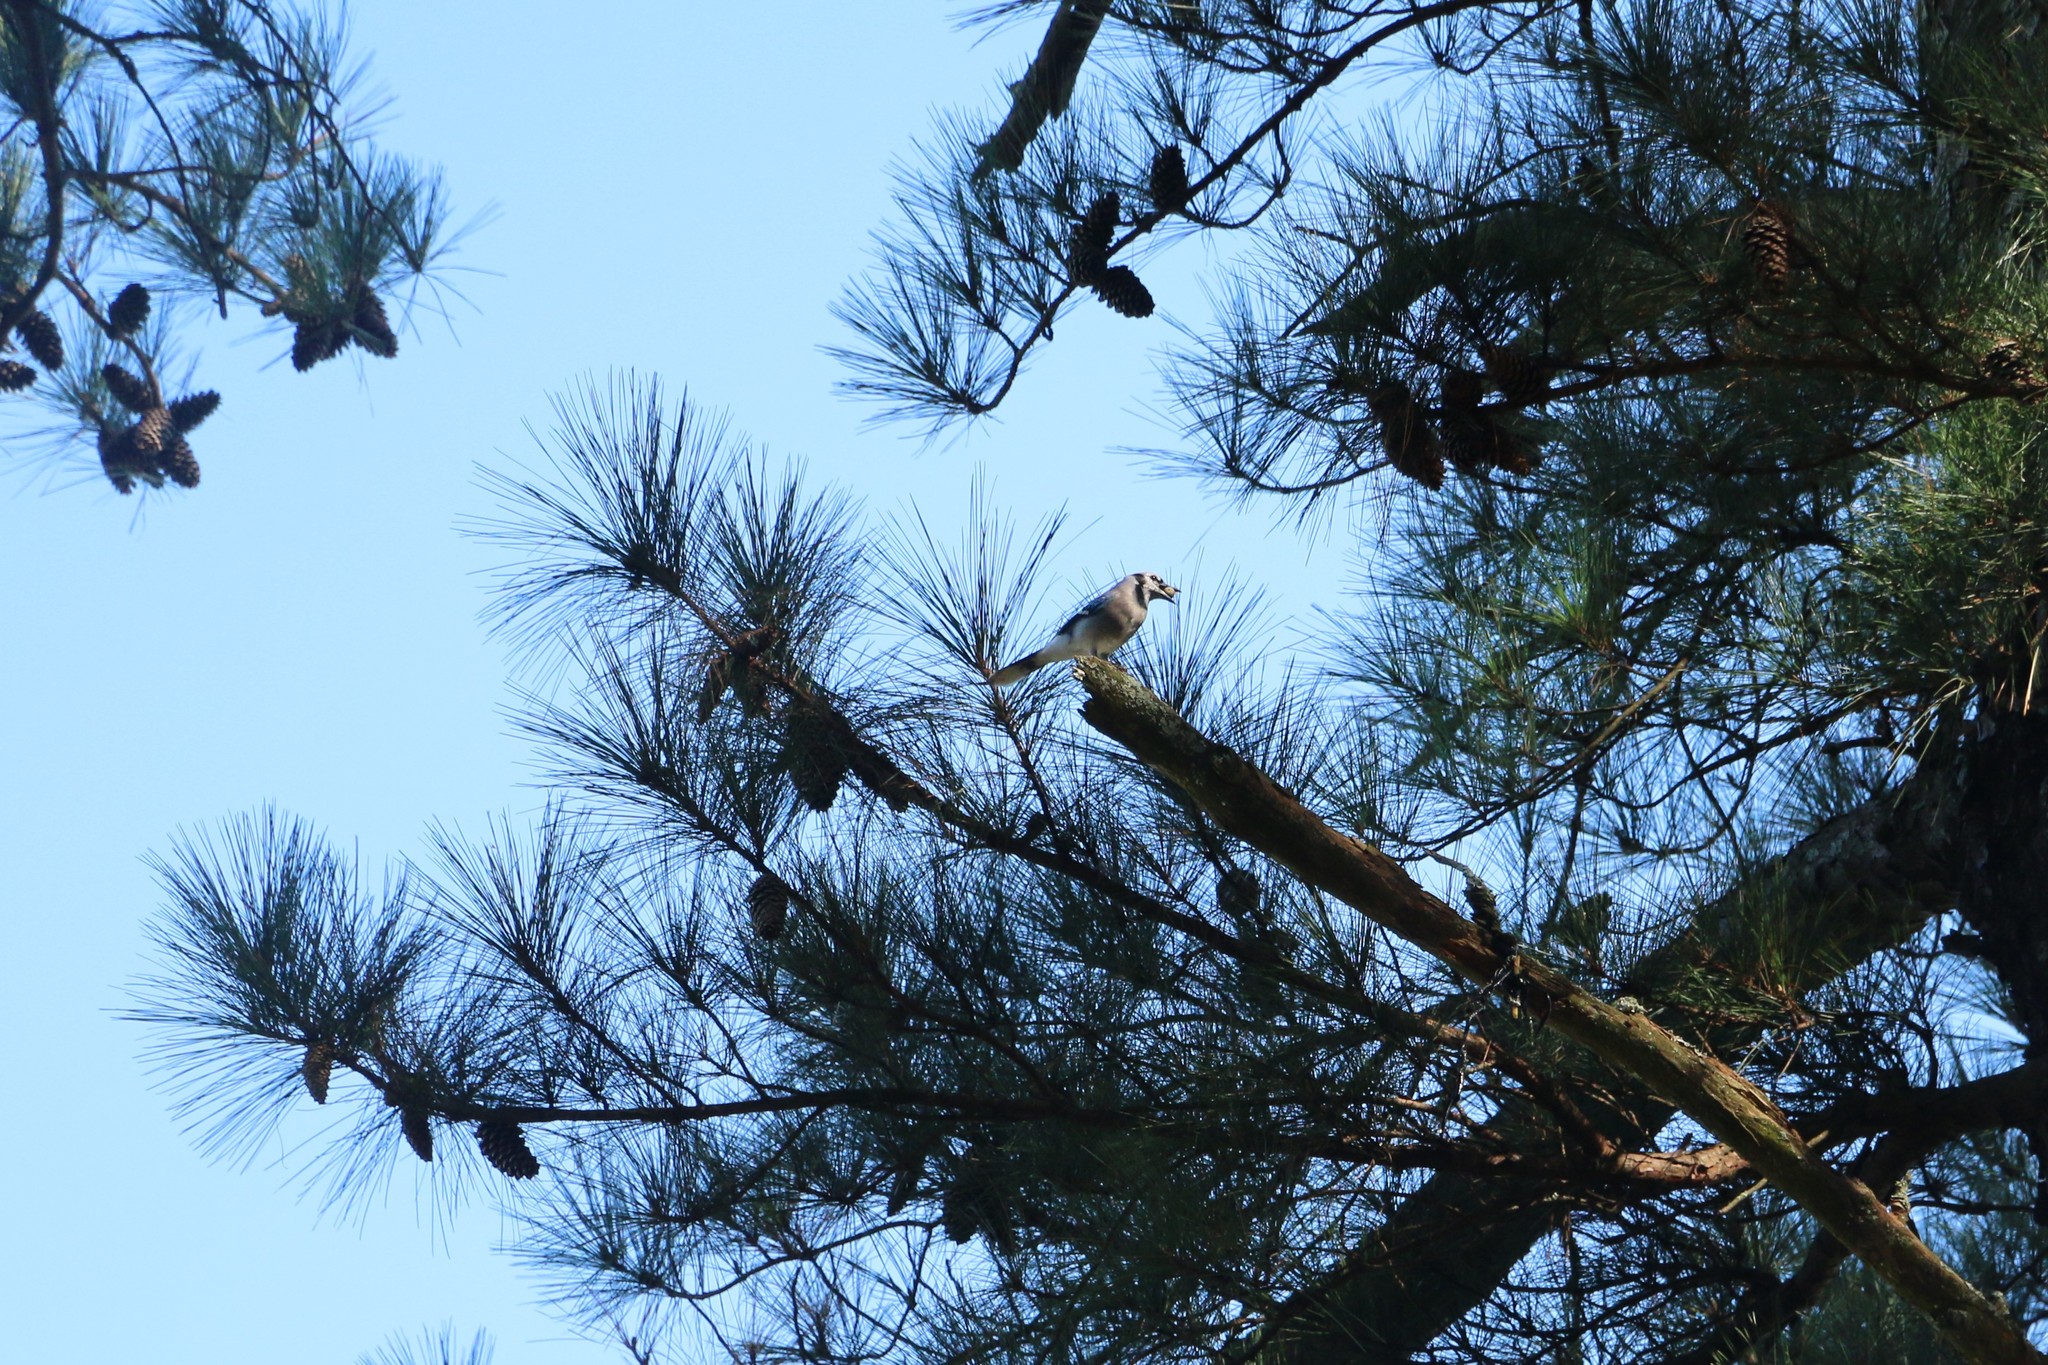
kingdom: Animalia
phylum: Chordata
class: Aves
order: Passeriformes
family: Corvidae
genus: Cyanocitta
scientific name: Cyanocitta cristata
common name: Blue jay
